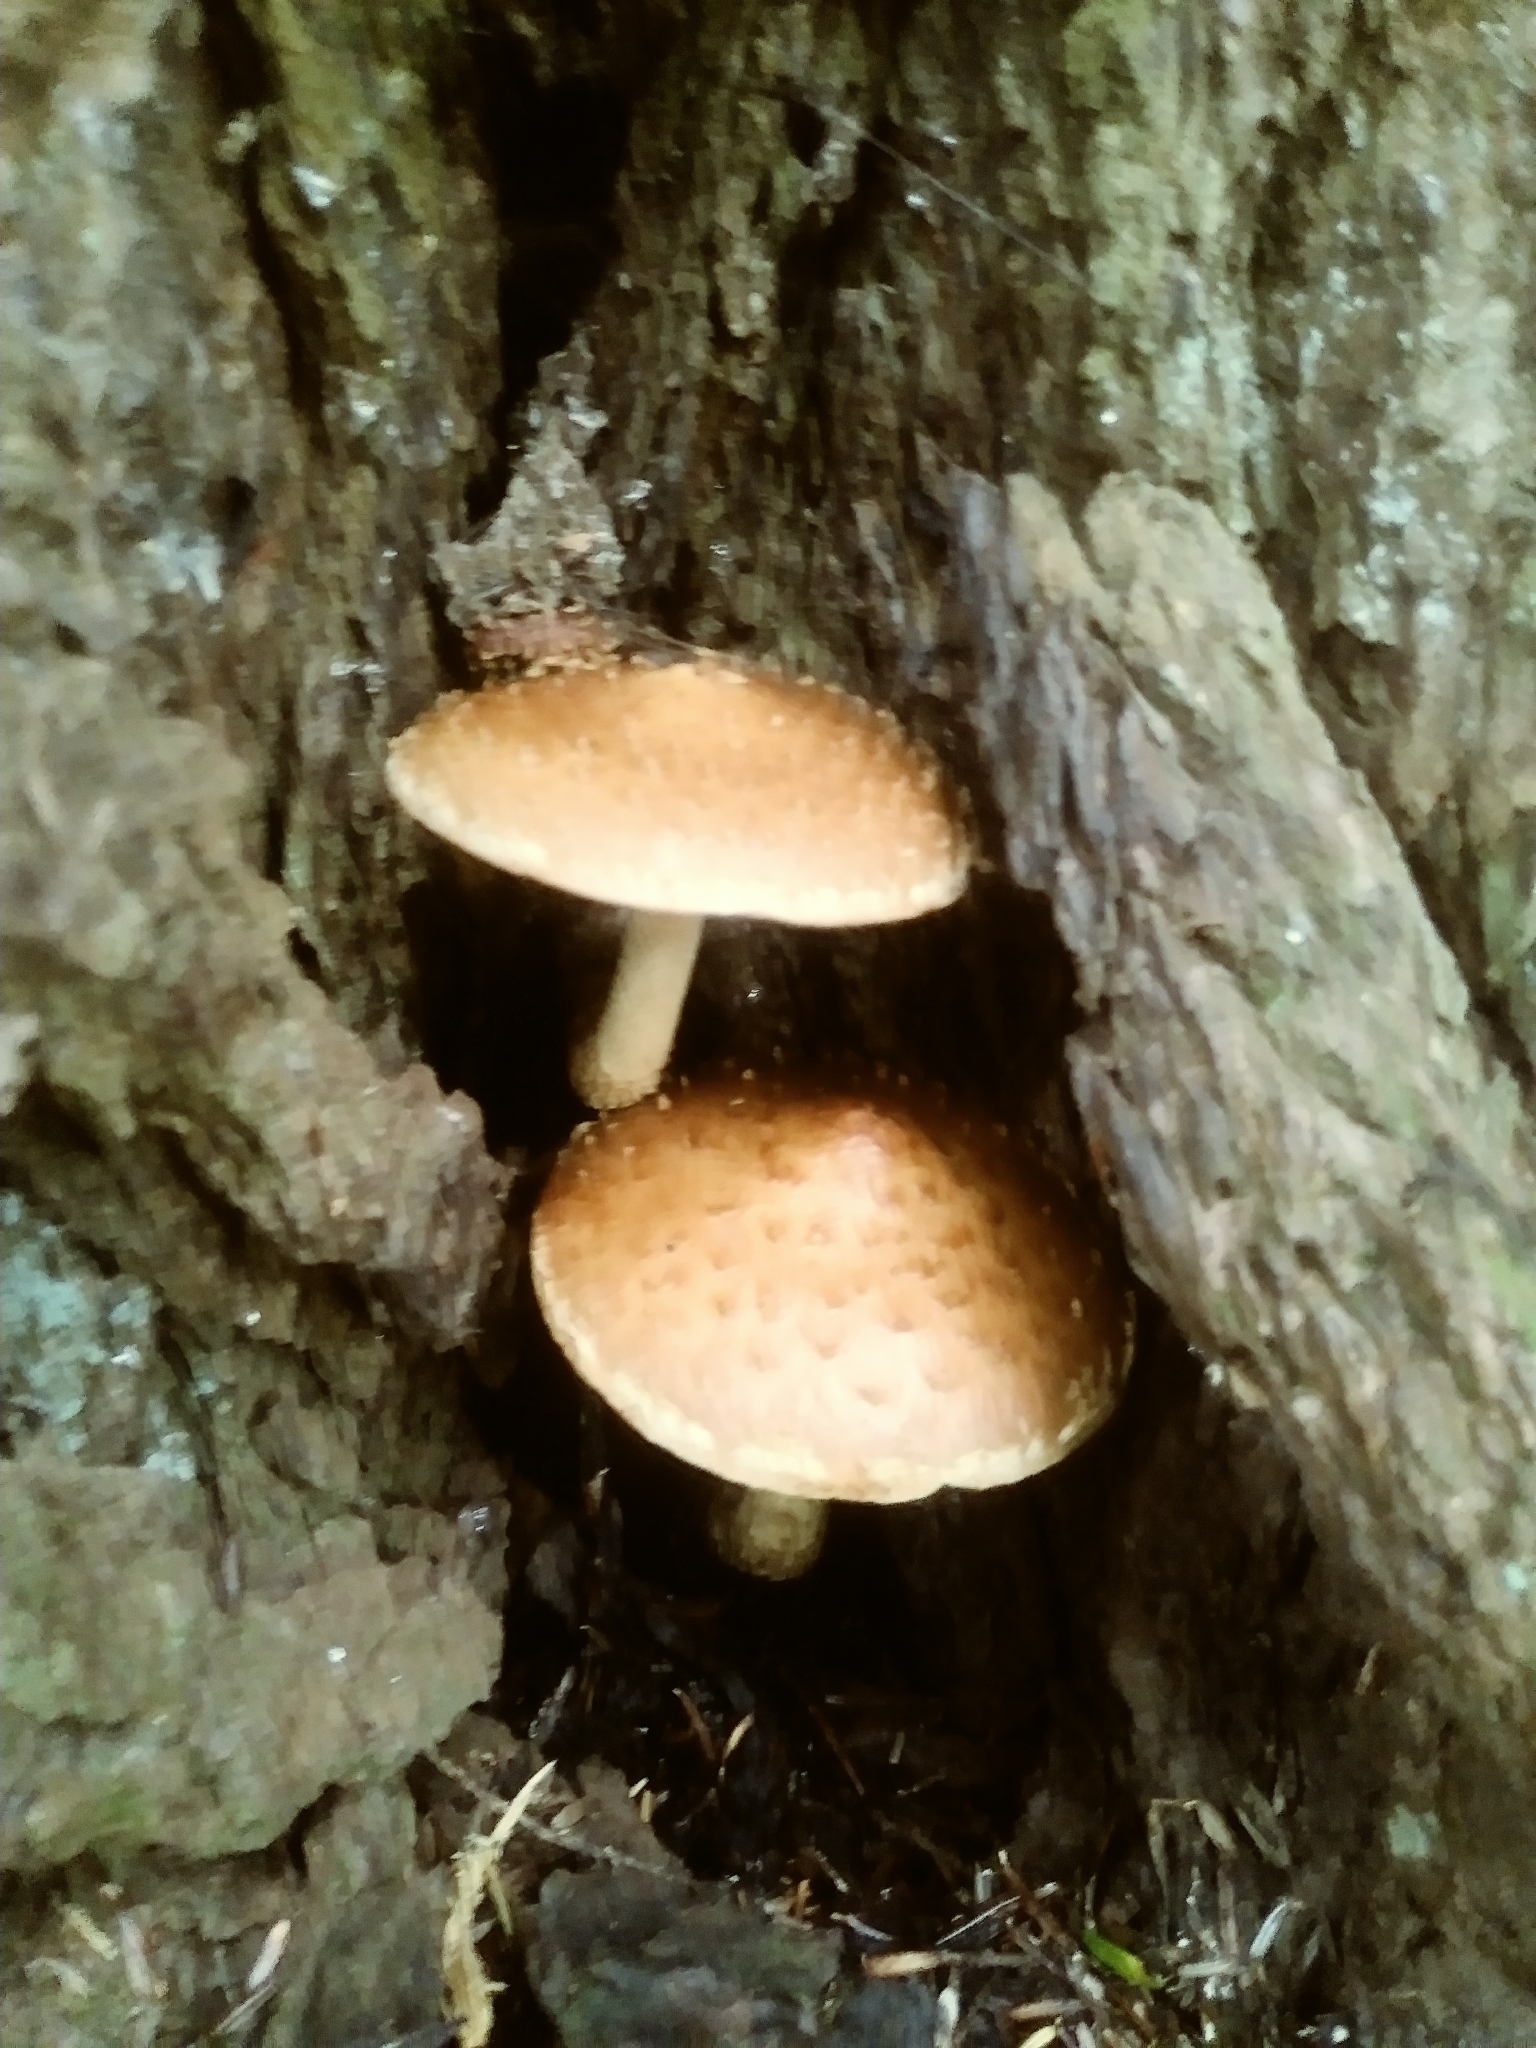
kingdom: Fungi
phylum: Basidiomycota
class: Agaricomycetes
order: Agaricales
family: Tubariaceae
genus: Hemistropharia
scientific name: Hemistropharia albocrenulata
